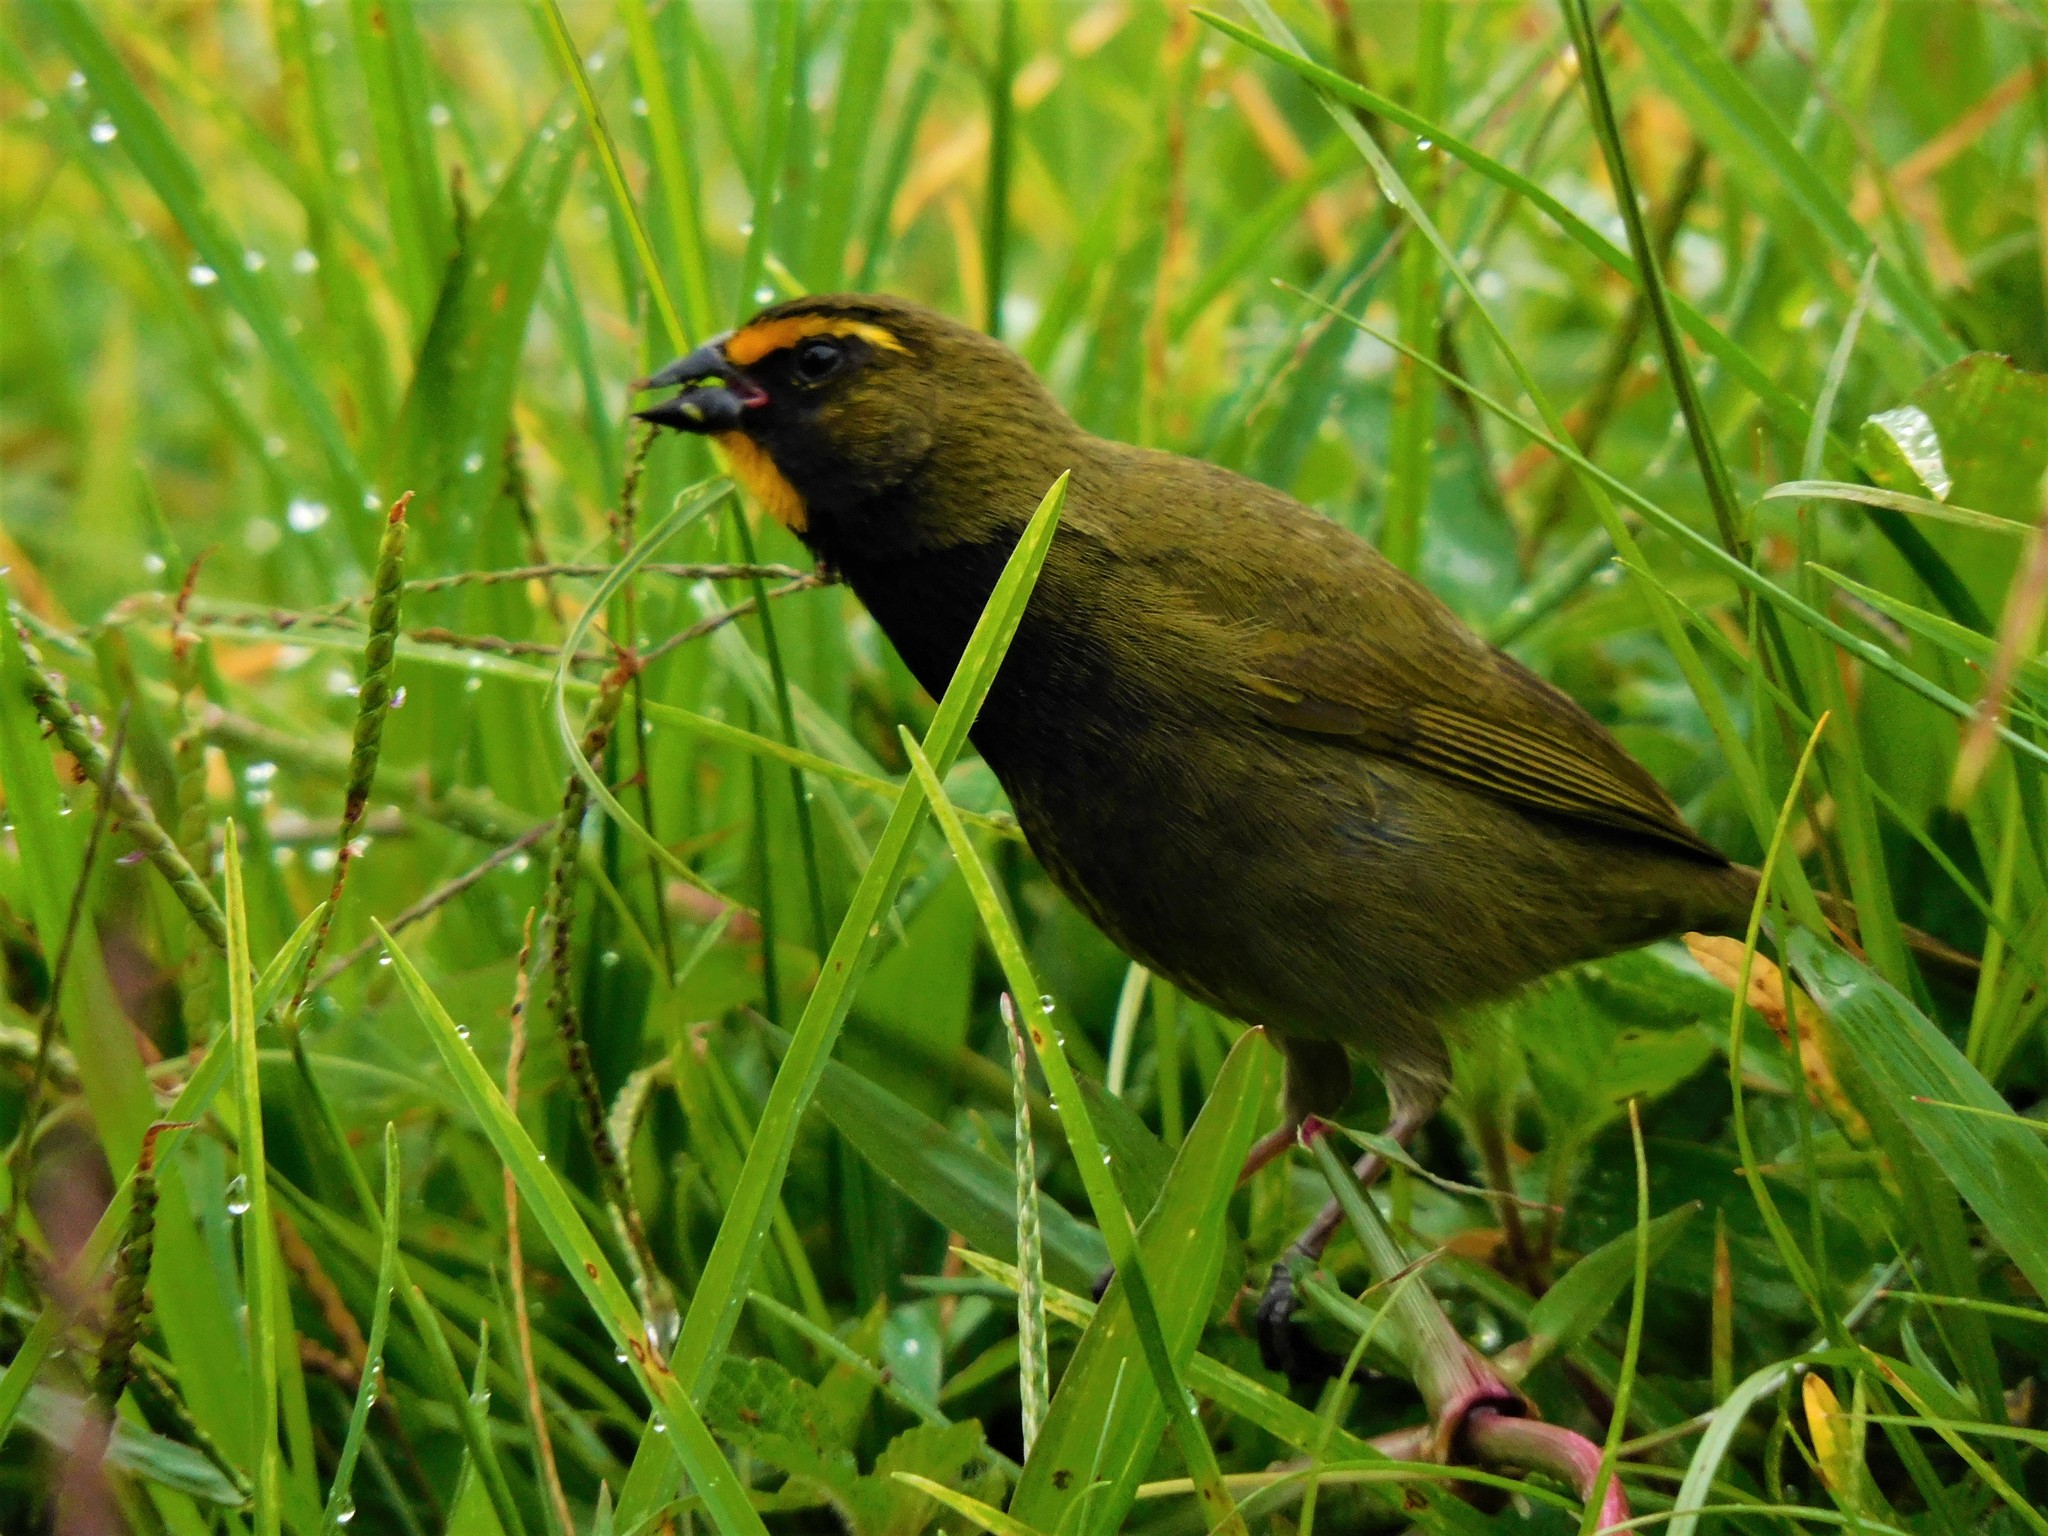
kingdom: Animalia
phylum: Chordata
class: Aves
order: Passeriformes
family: Thraupidae
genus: Tiaris
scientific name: Tiaris olivaceus
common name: Yellow-faced grassquit
